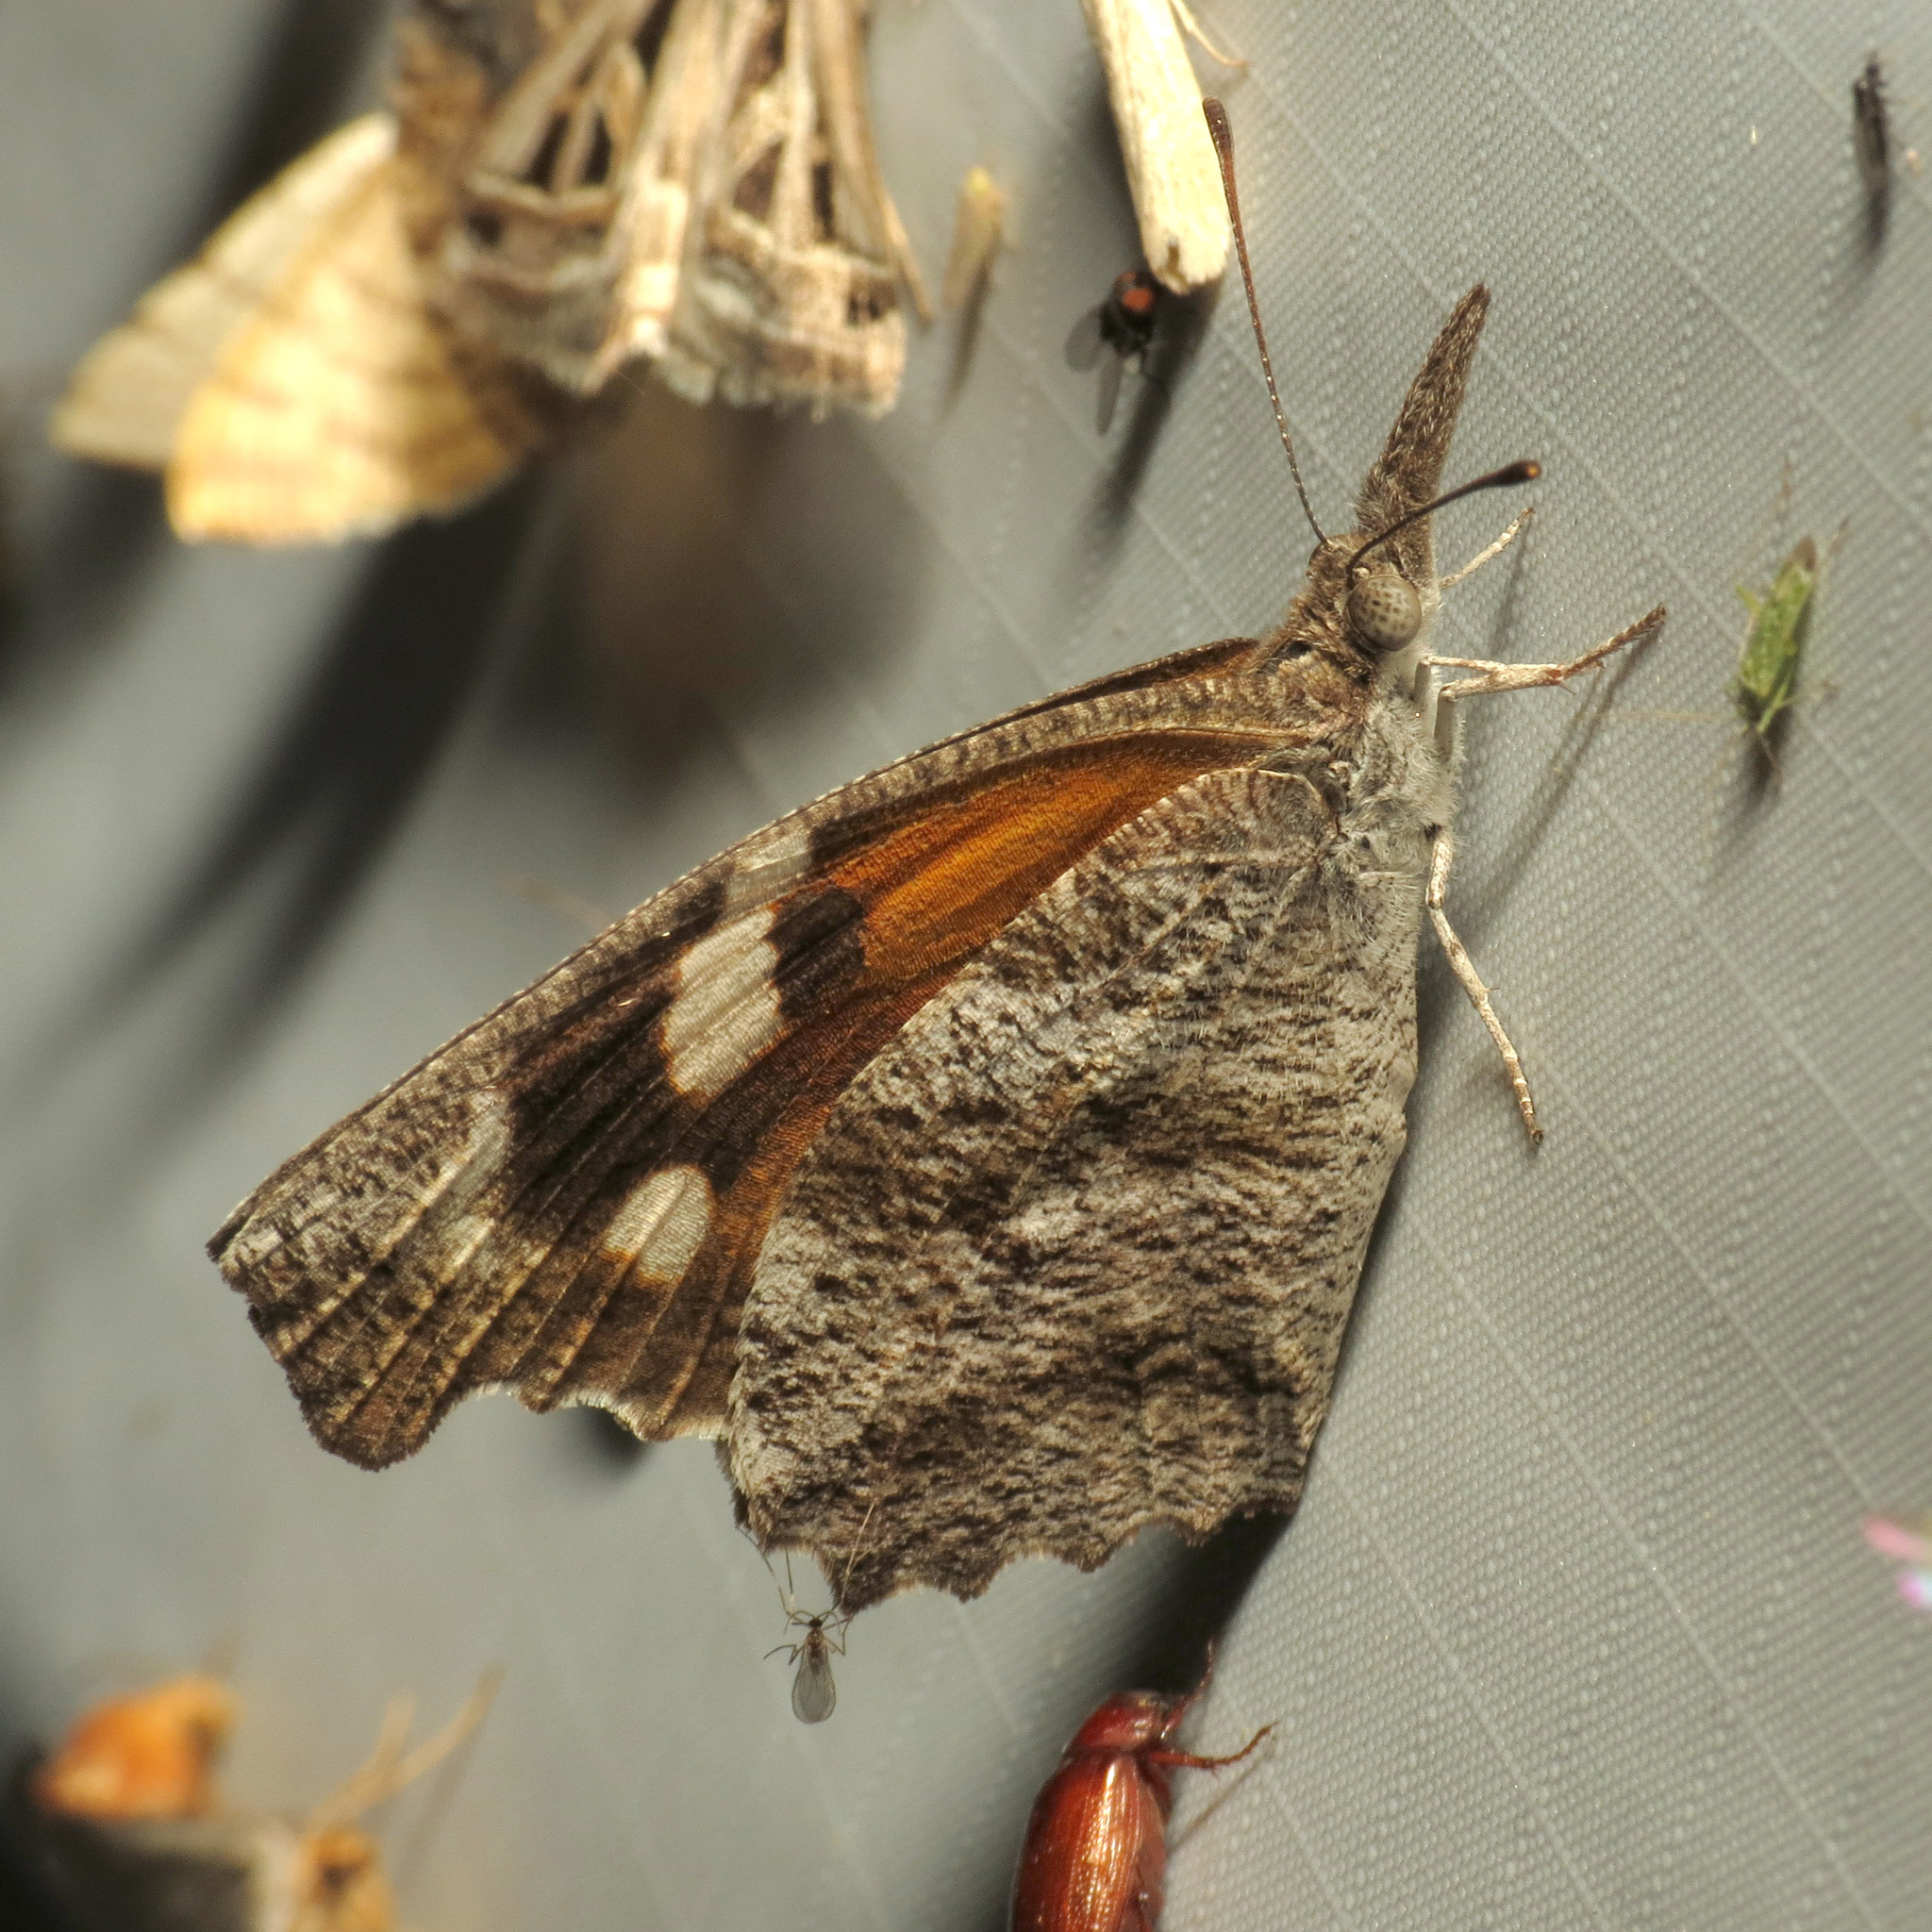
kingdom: Animalia
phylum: Arthropoda
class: Insecta
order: Lepidoptera
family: Nymphalidae
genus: Libytheana
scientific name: Libytheana carinenta
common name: American snout
